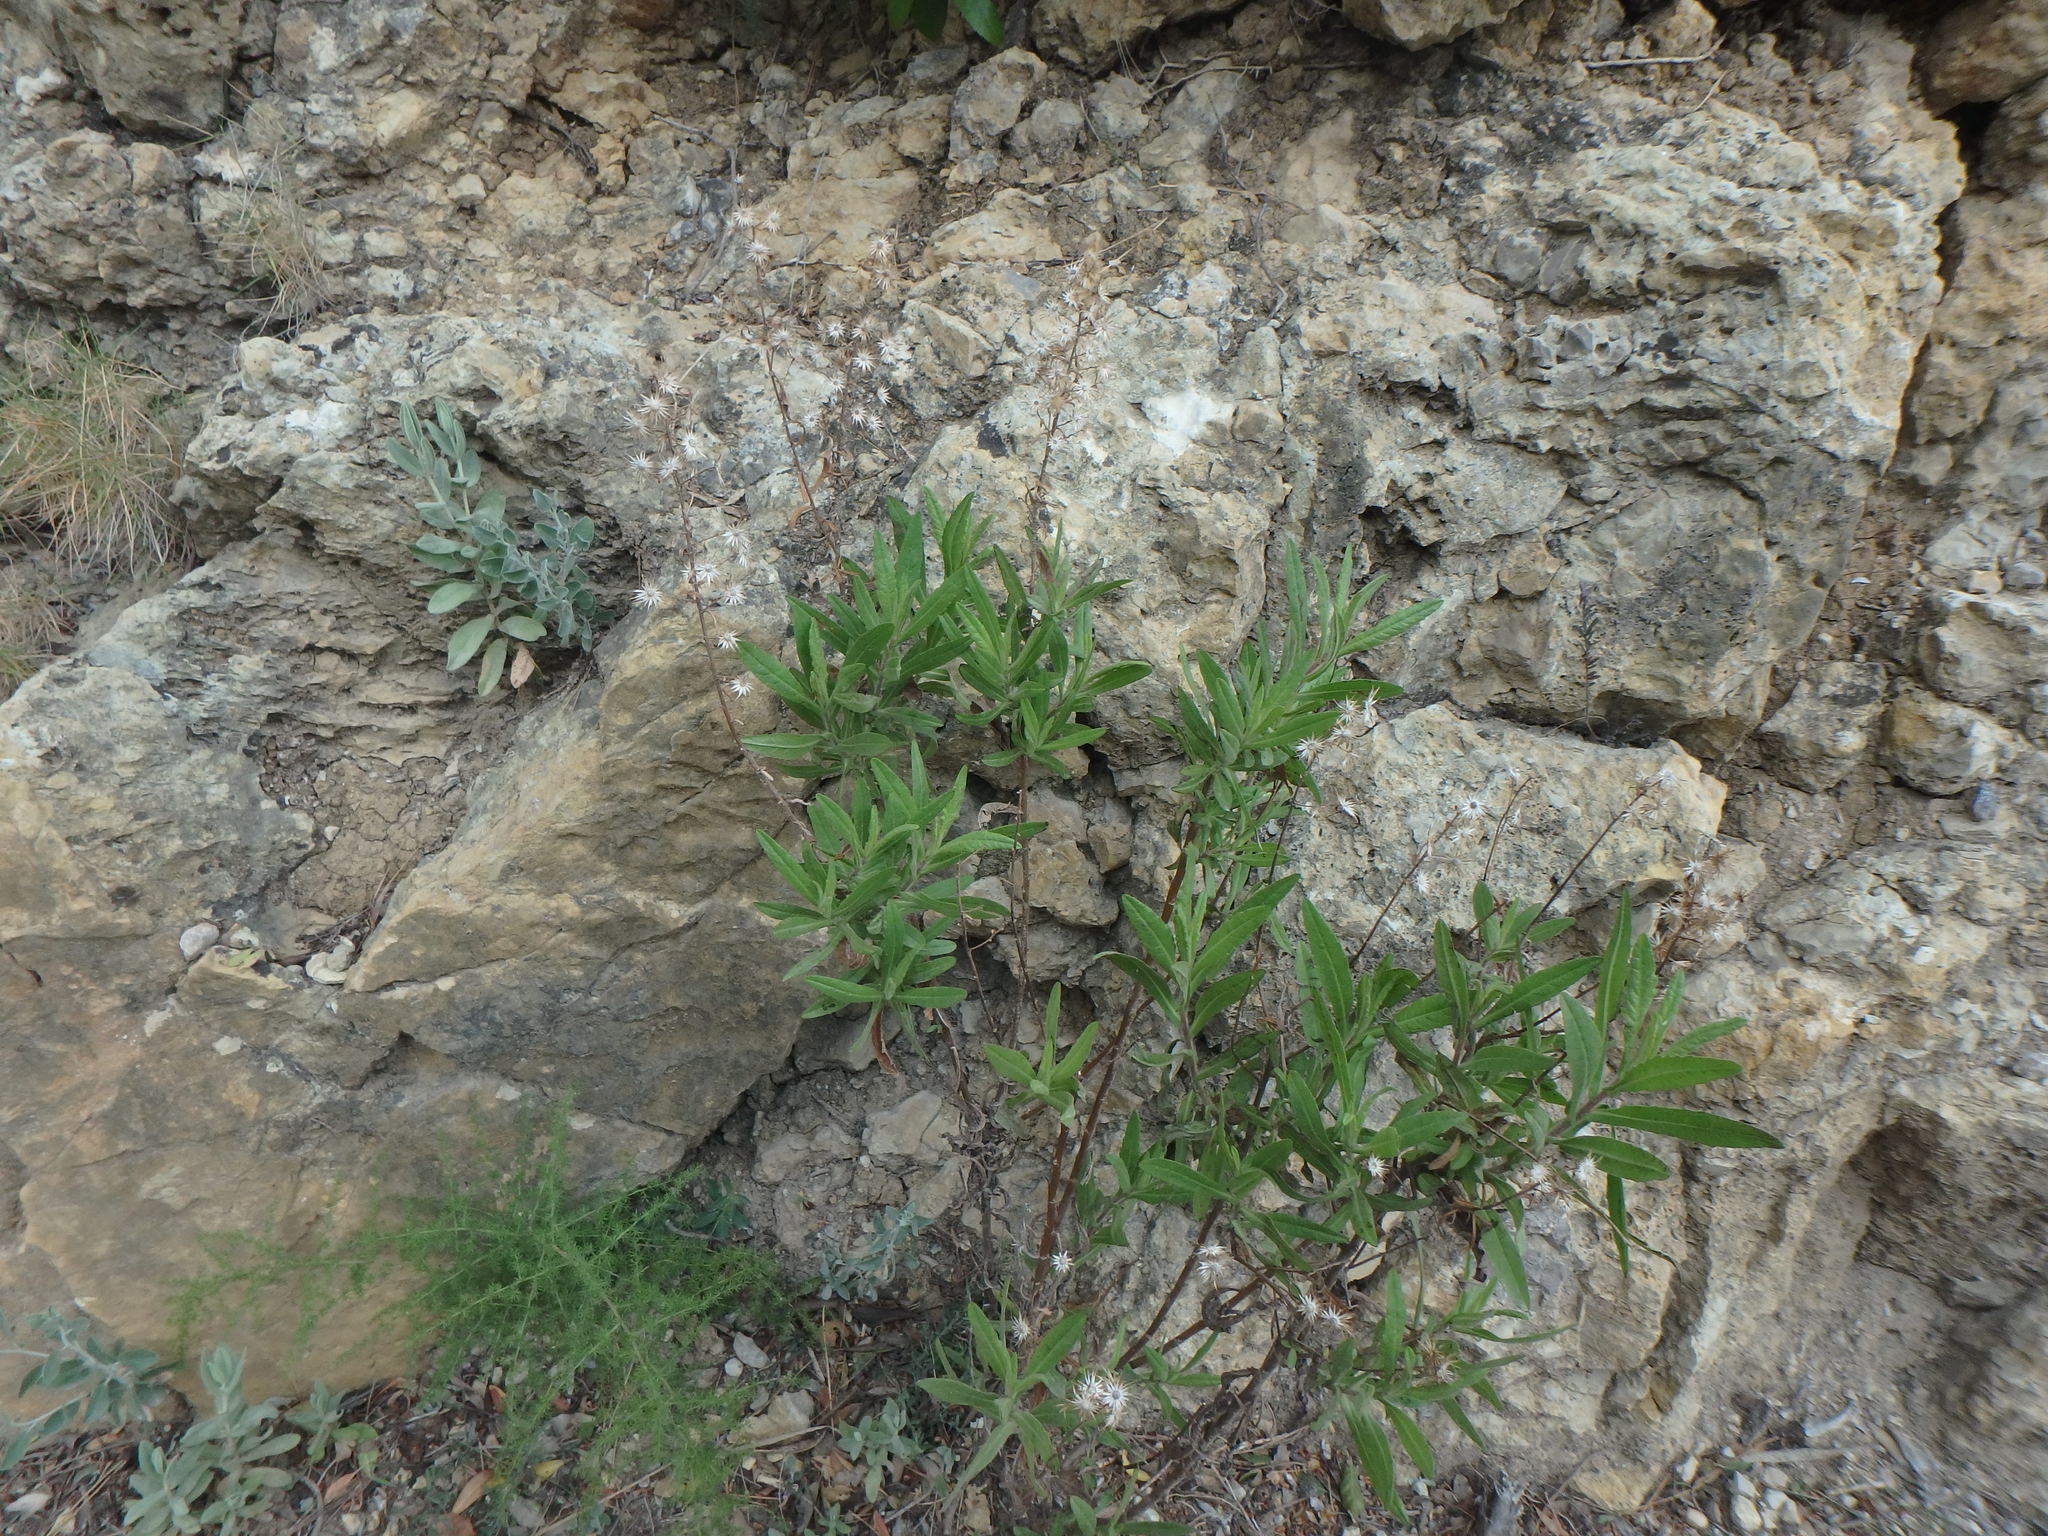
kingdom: Plantae
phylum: Tracheophyta
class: Magnoliopsida
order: Asterales
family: Asteraceae
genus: Dittrichia
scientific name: Dittrichia viscosa
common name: Woody fleabane
